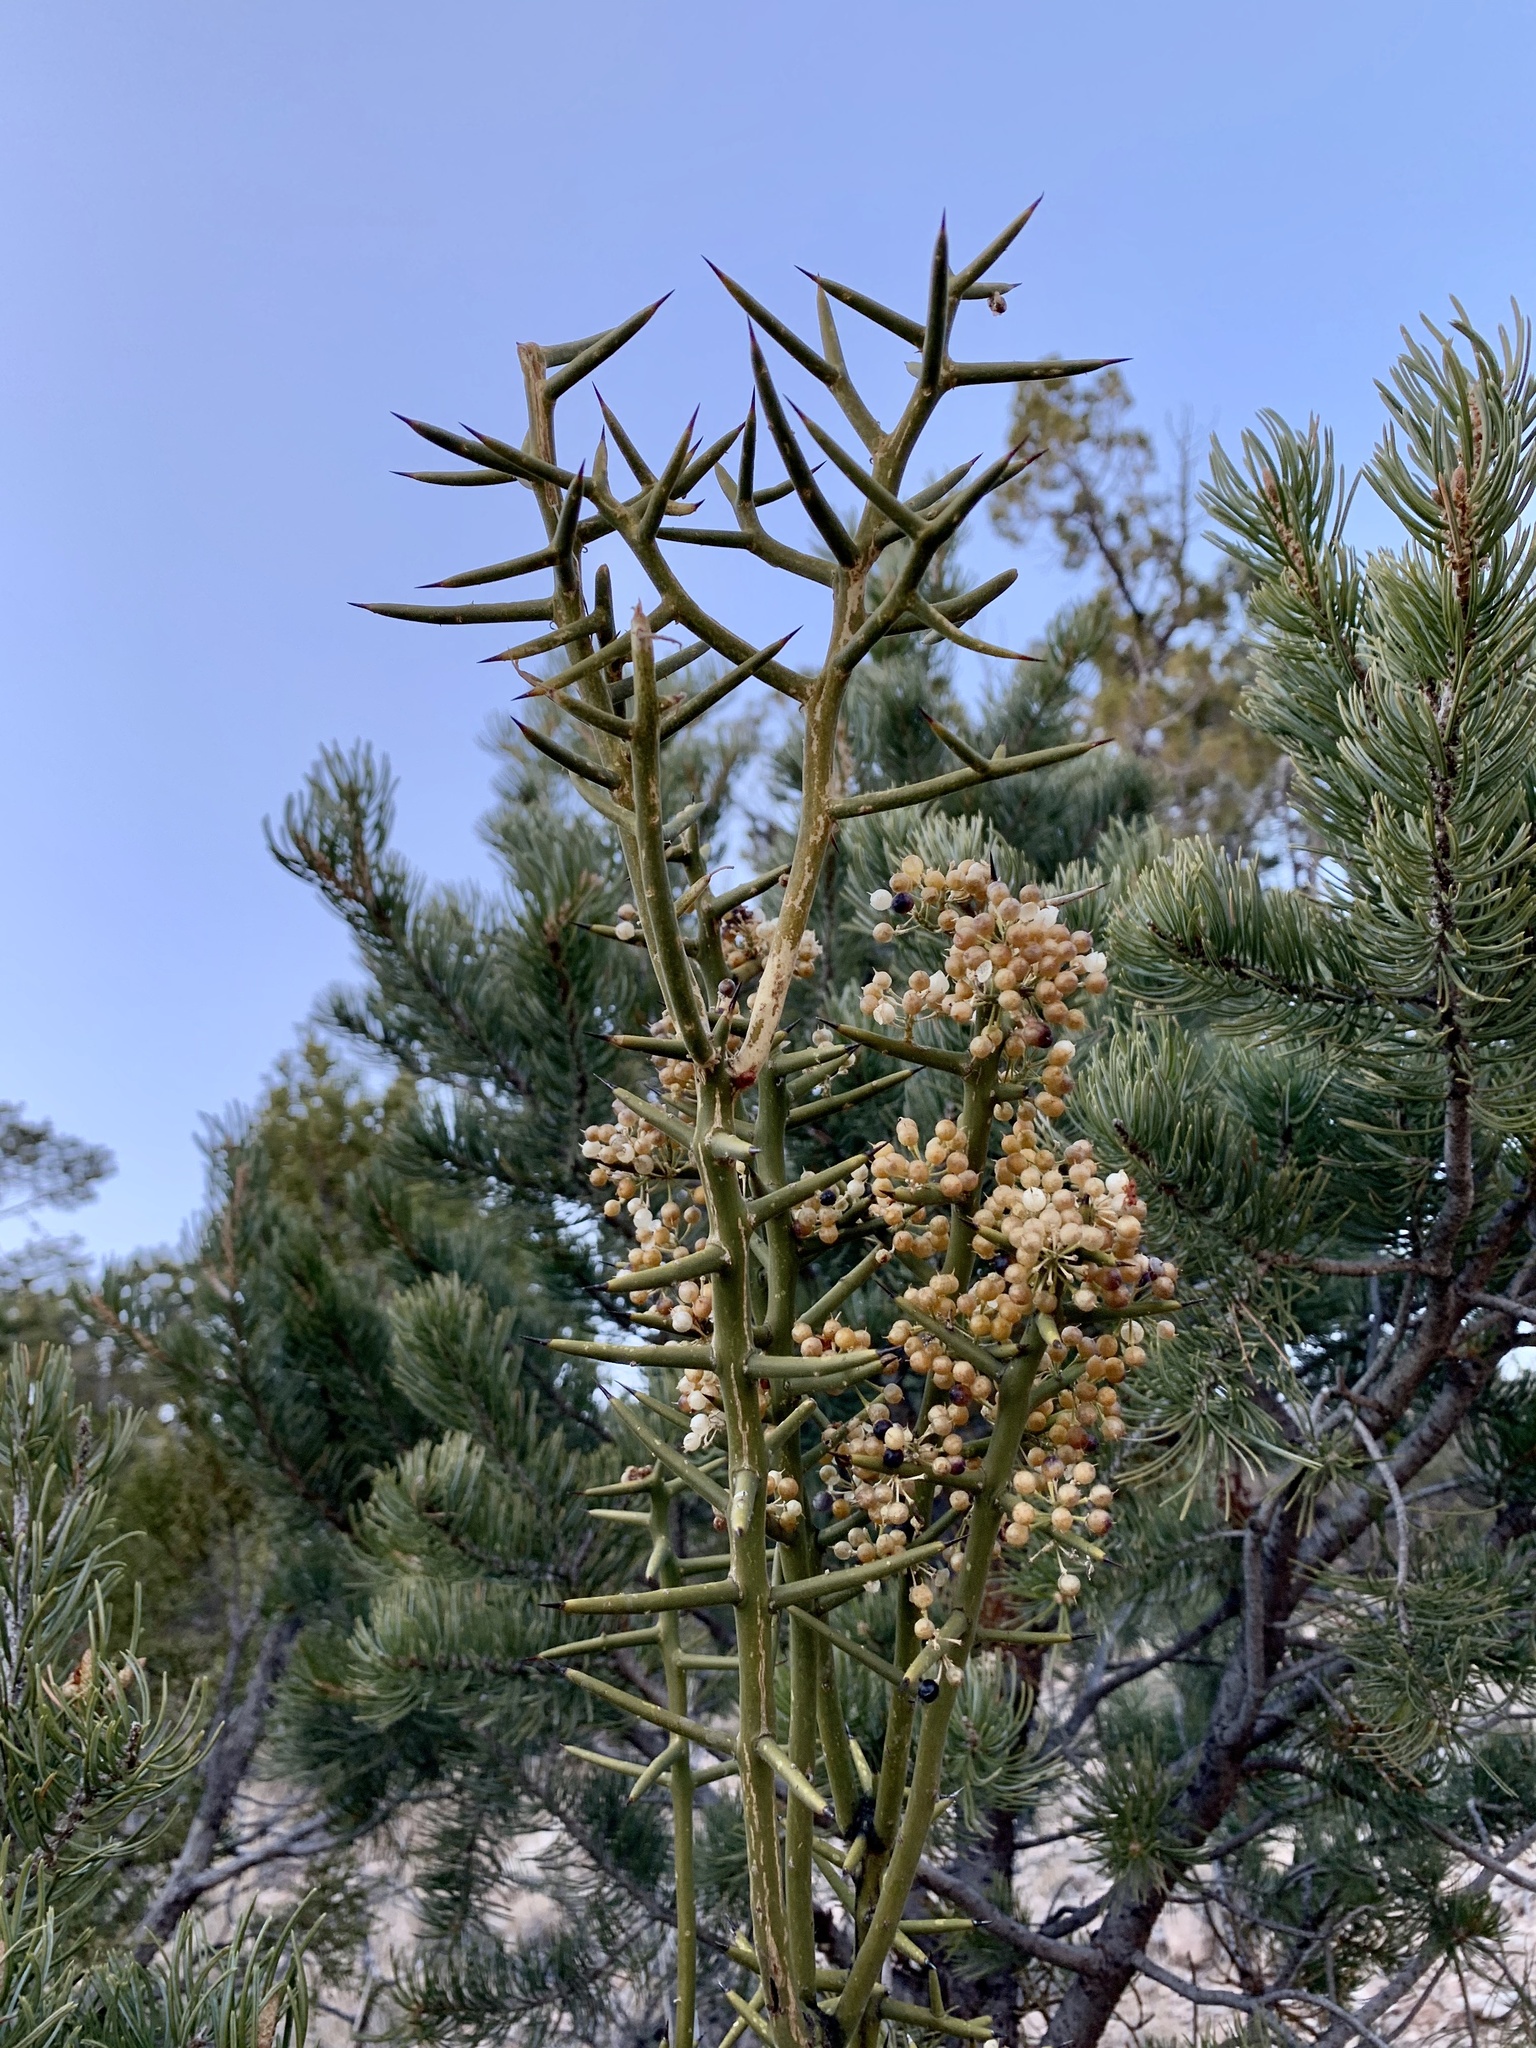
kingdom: Plantae
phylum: Tracheophyta
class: Magnoliopsida
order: Brassicales
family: Koeberliniaceae
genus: Koeberlinia
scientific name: Koeberlinia spinosa
